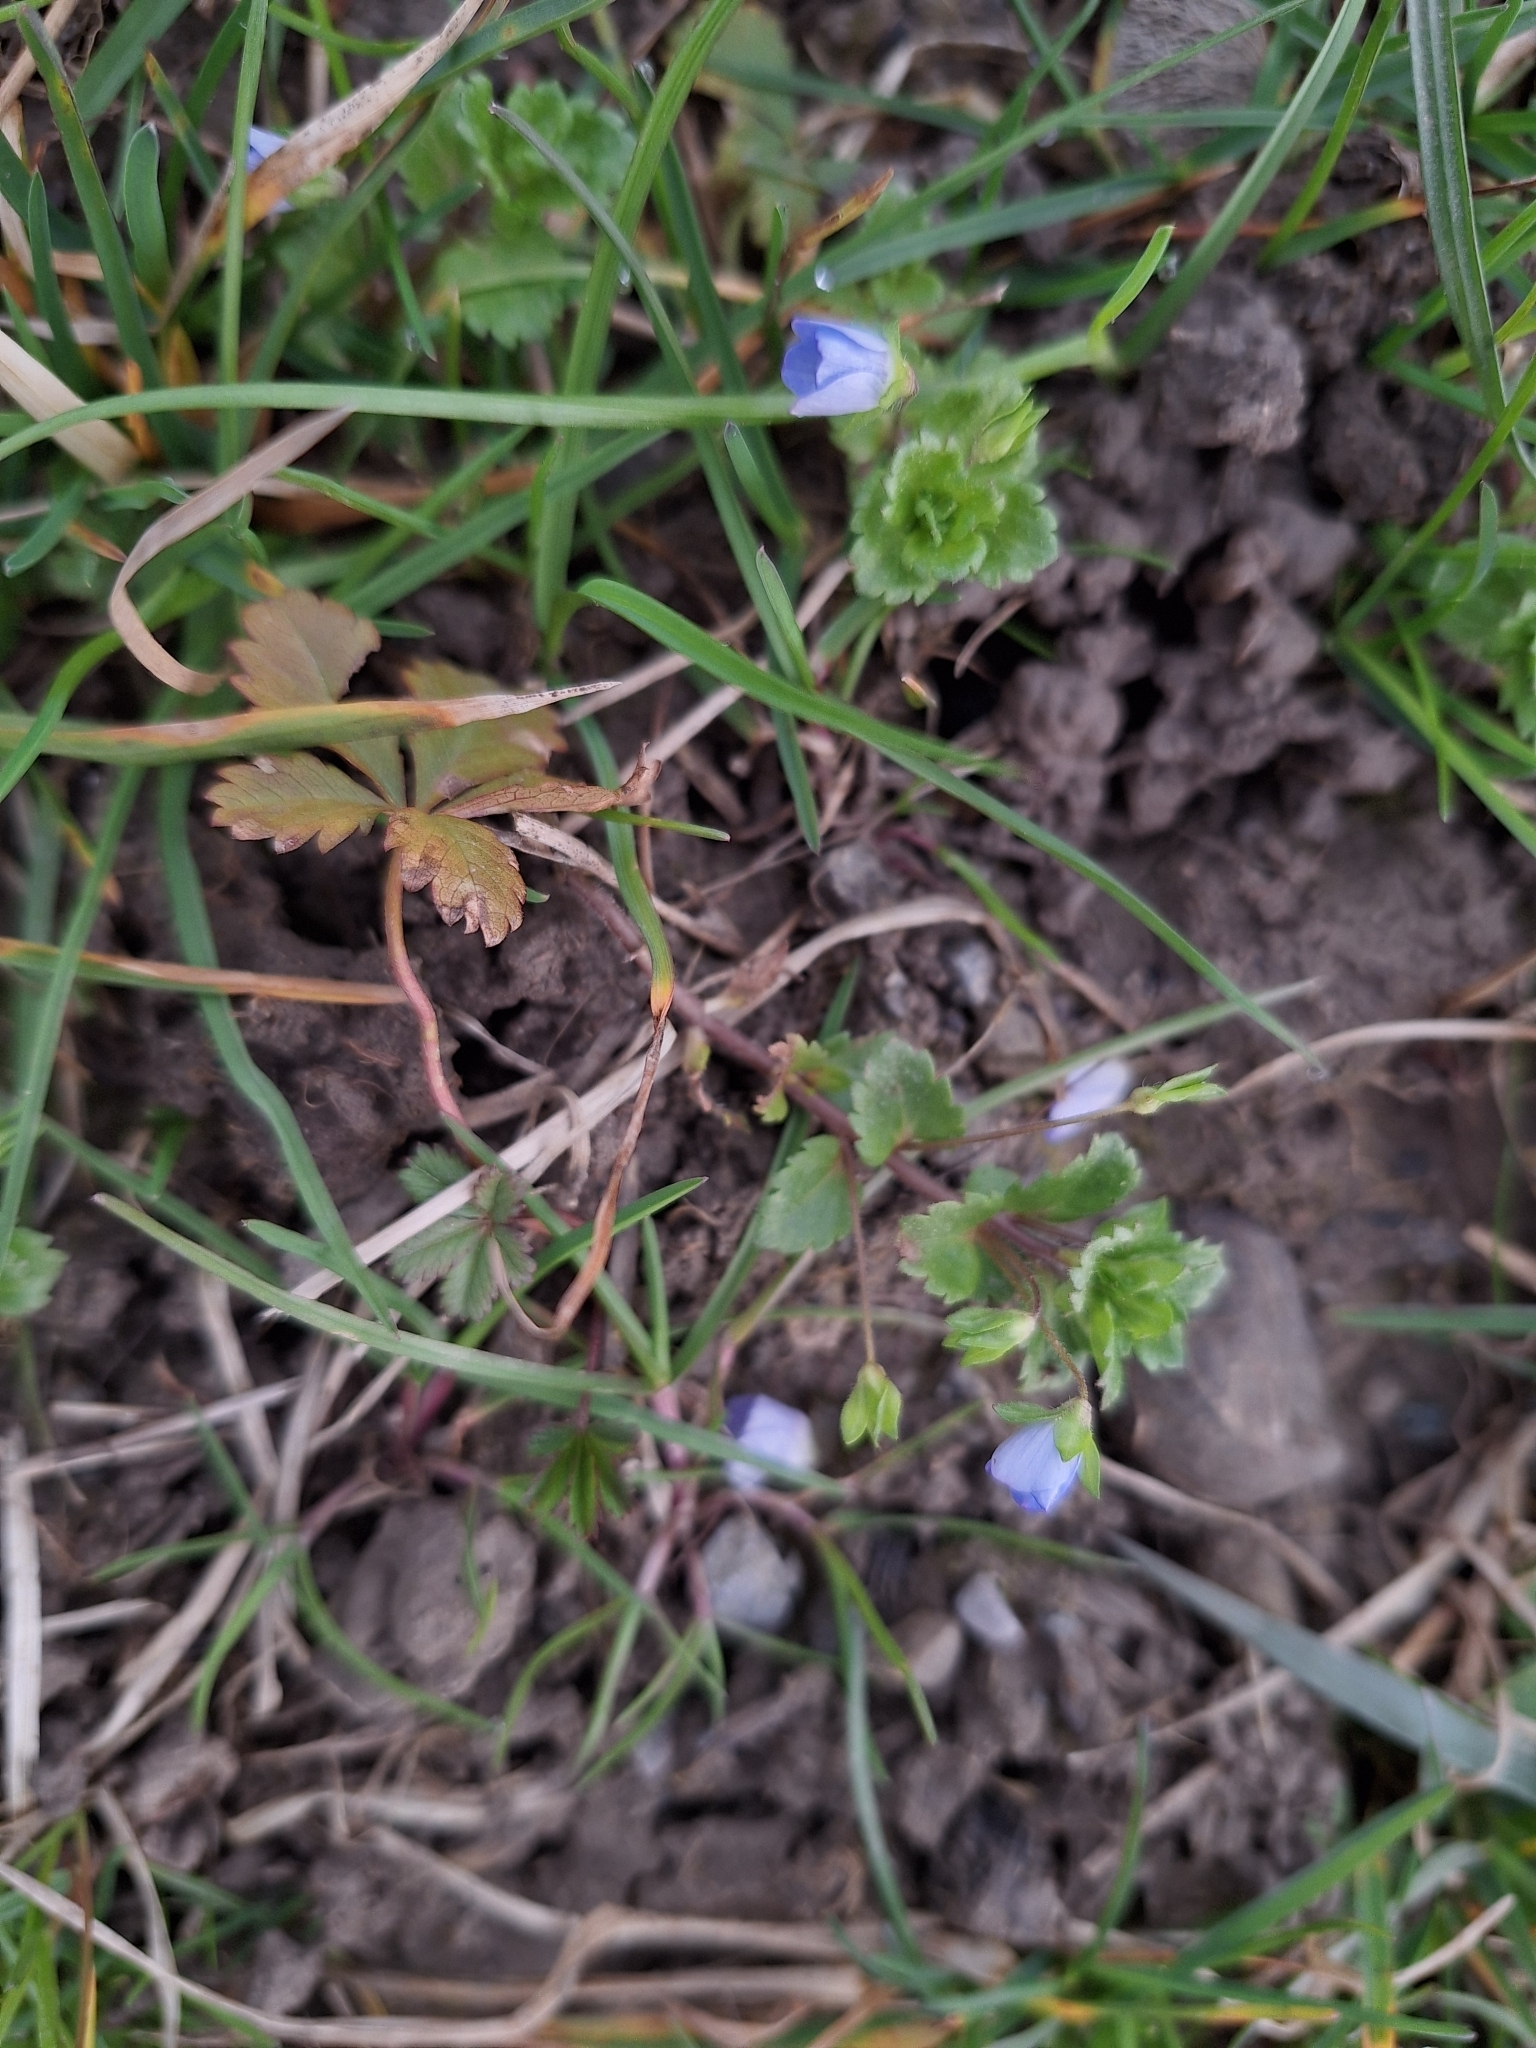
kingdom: Plantae
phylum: Tracheophyta
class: Magnoliopsida
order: Lamiales
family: Plantaginaceae
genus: Veronica
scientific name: Veronica persica
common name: Common field-speedwell
